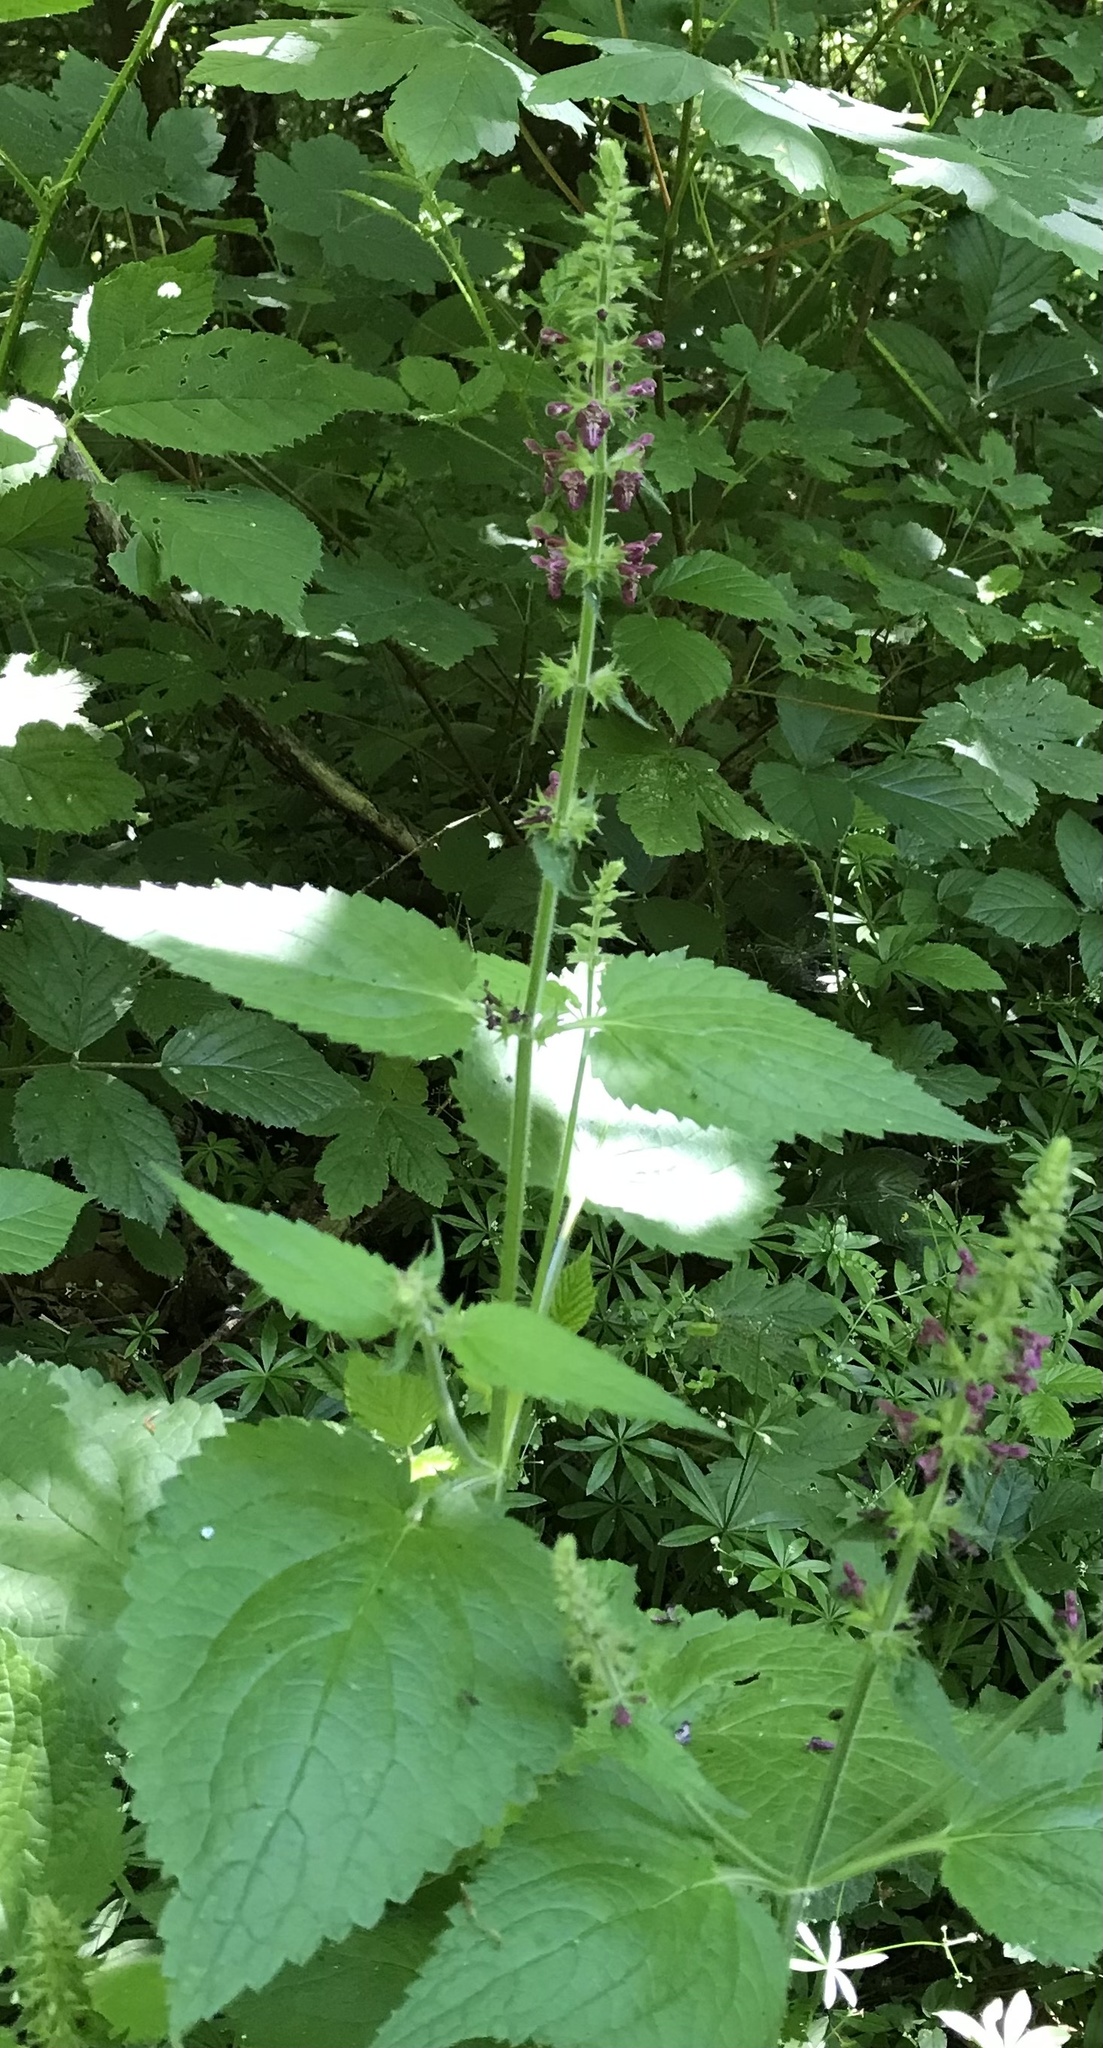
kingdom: Plantae
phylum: Tracheophyta
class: Magnoliopsida
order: Lamiales
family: Lamiaceae
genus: Stachys
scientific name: Stachys sylvatica
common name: Hedge woundwort
